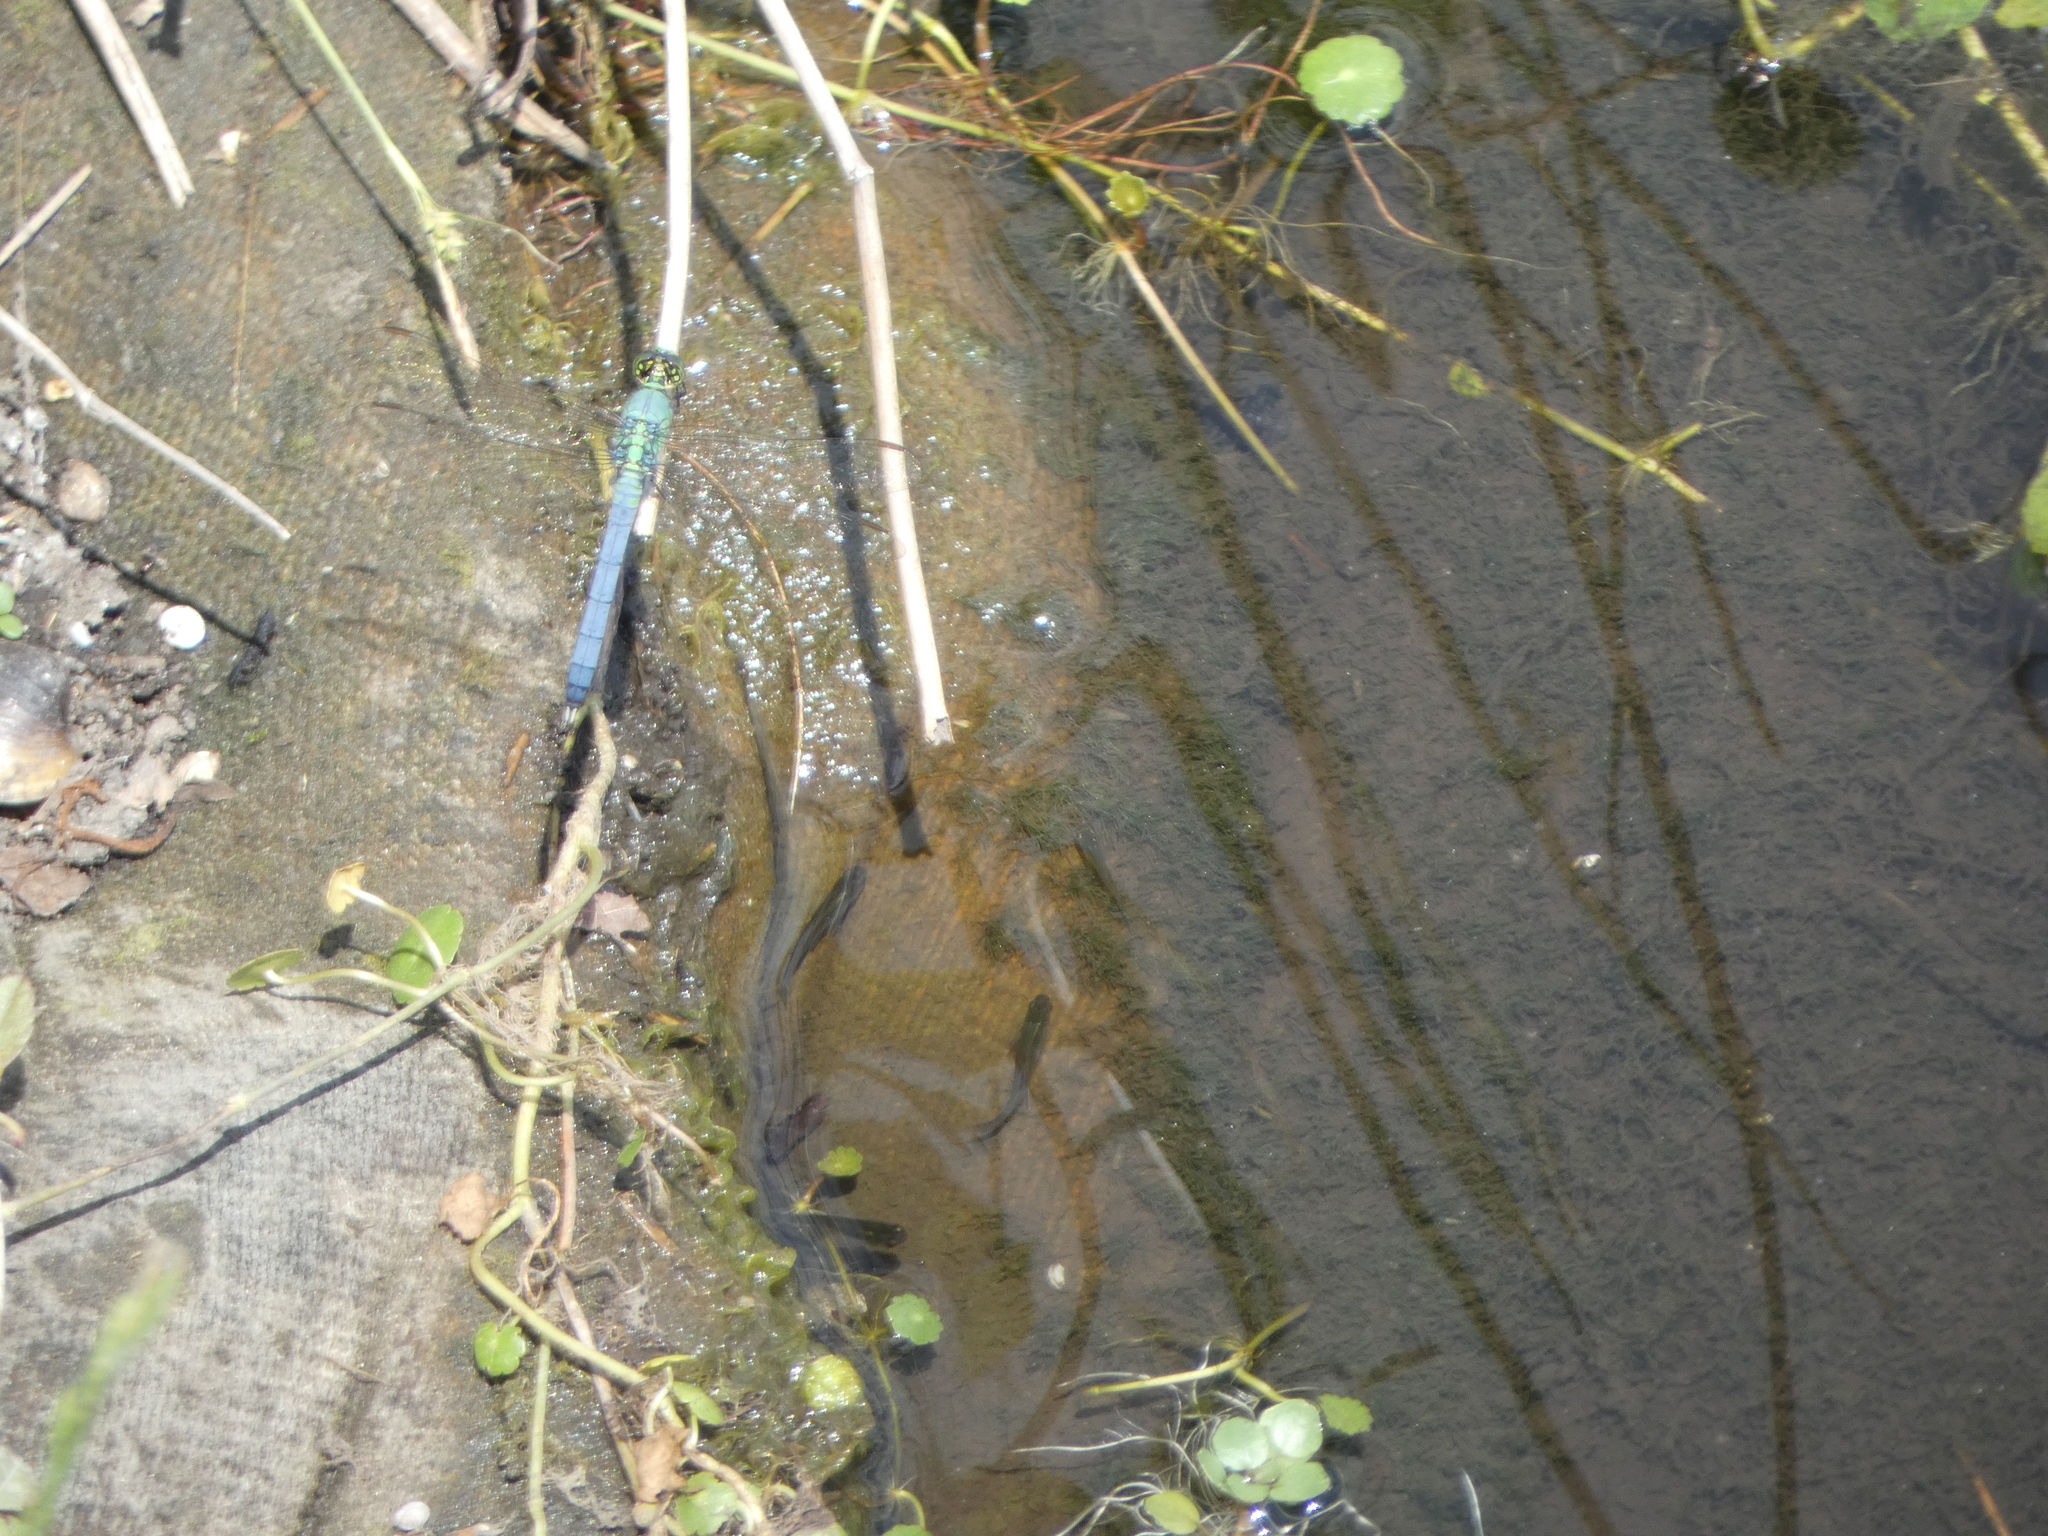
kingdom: Animalia
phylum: Arthropoda
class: Insecta
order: Odonata
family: Libellulidae
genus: Erythemis
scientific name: Erythemis simplicicollis
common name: Eastern pondhawk
